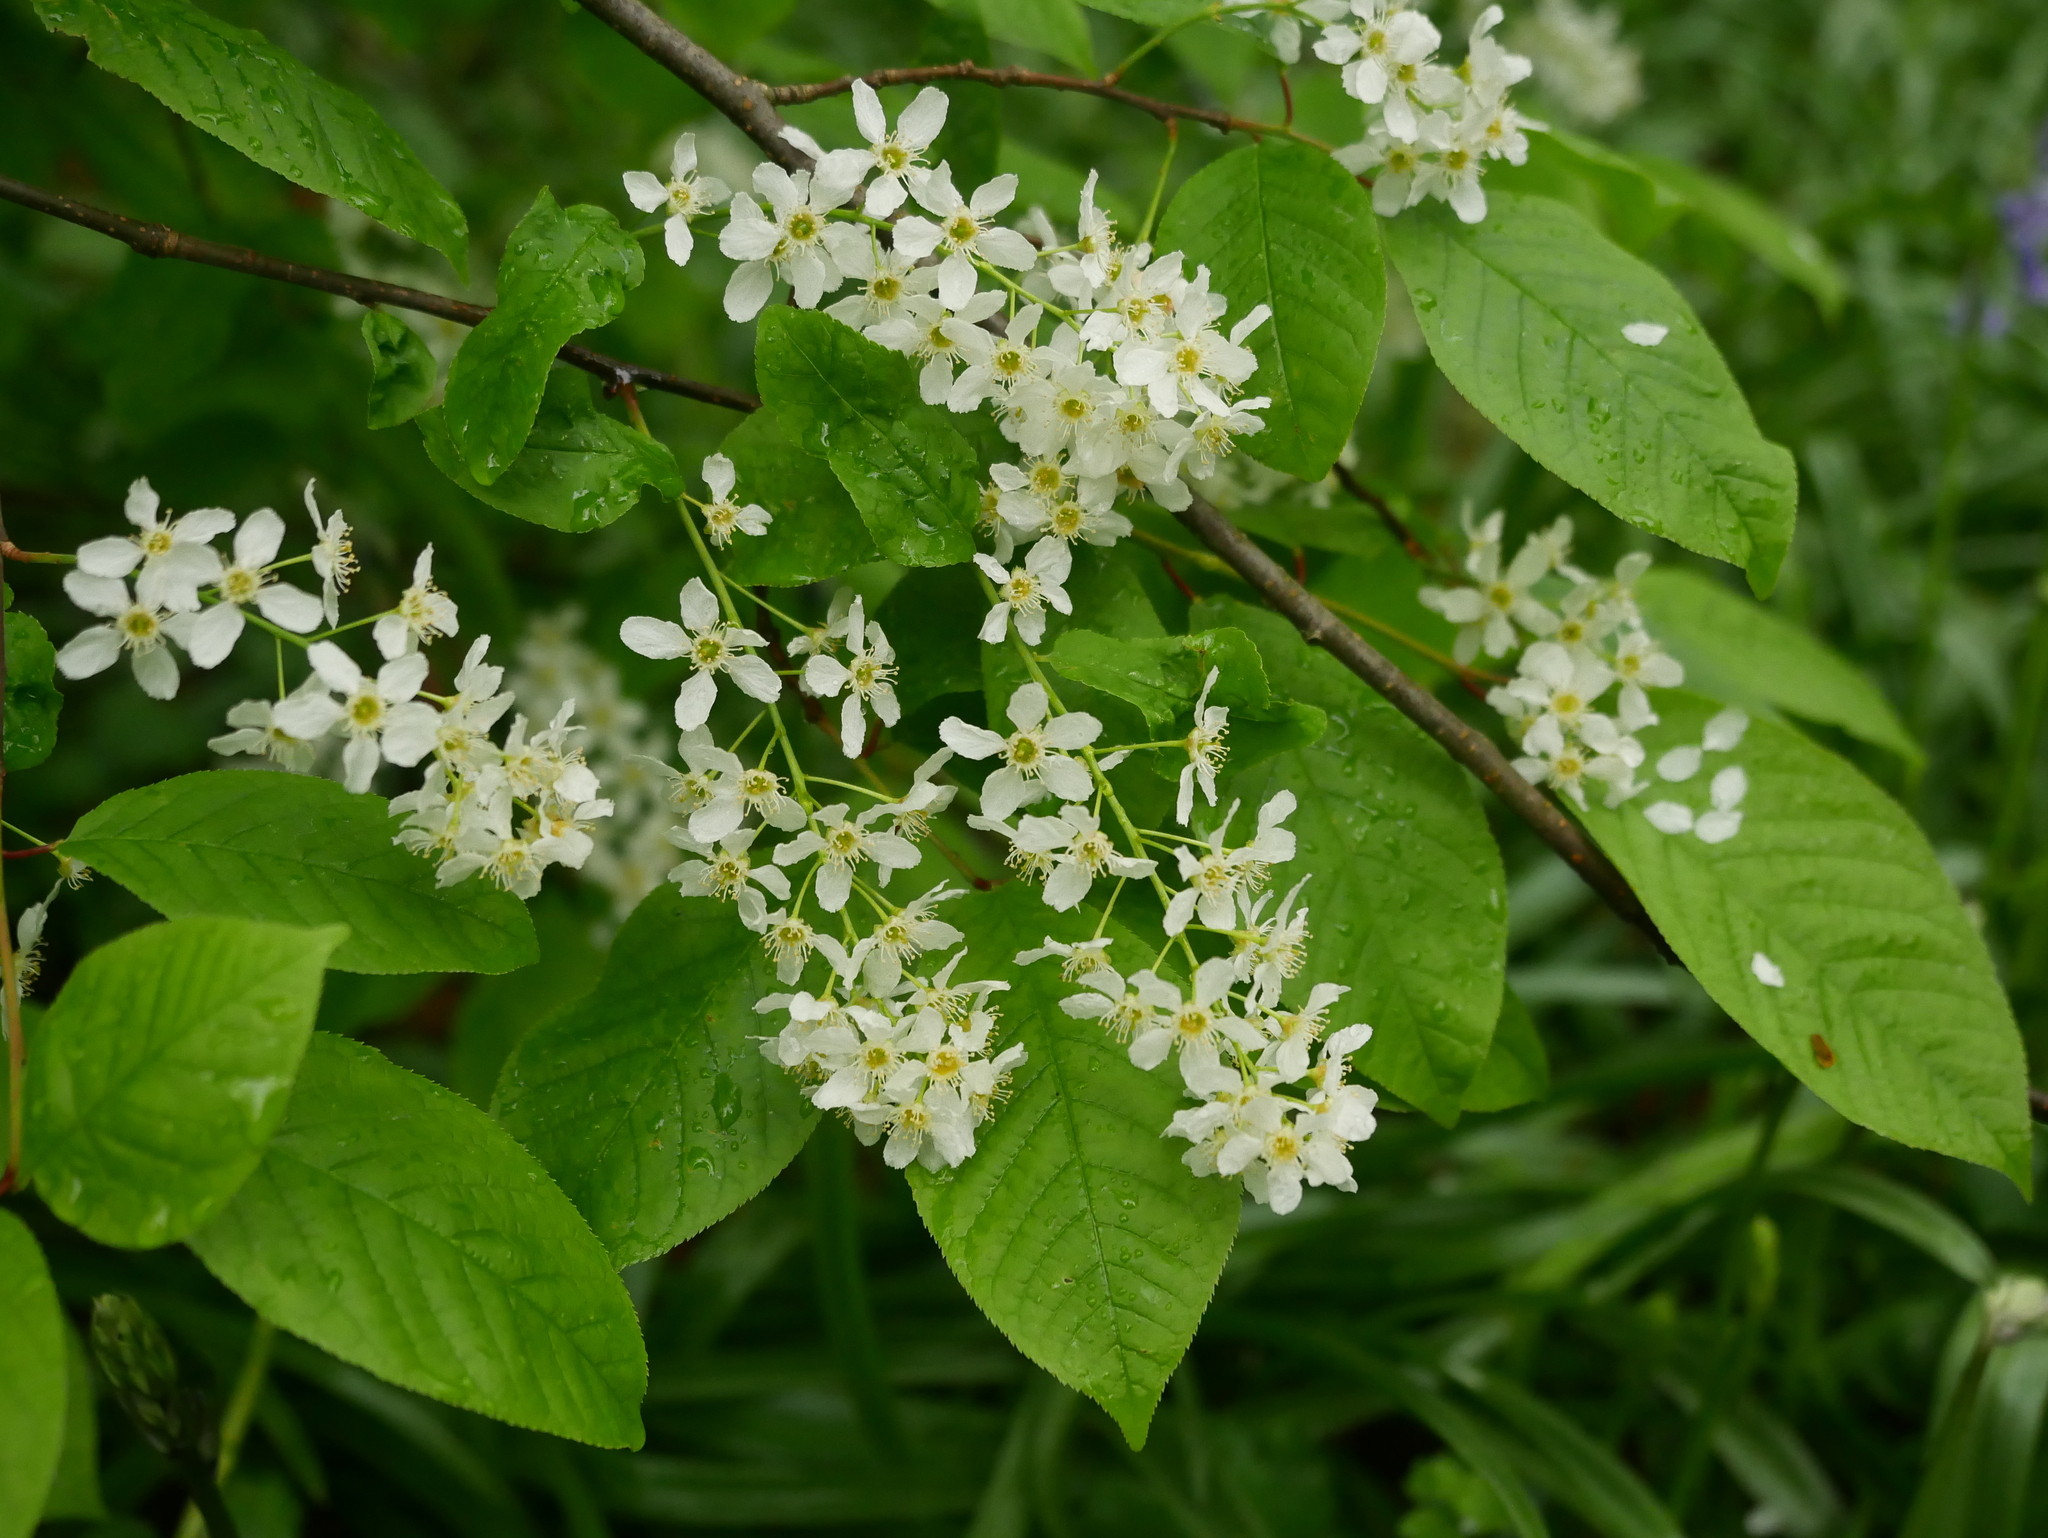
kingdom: Plantae
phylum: Tracheophyta
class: Magnoliopsida
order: Rosales
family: Rosaceae
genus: Prunus
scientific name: Prunus padus
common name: Bird cherry
